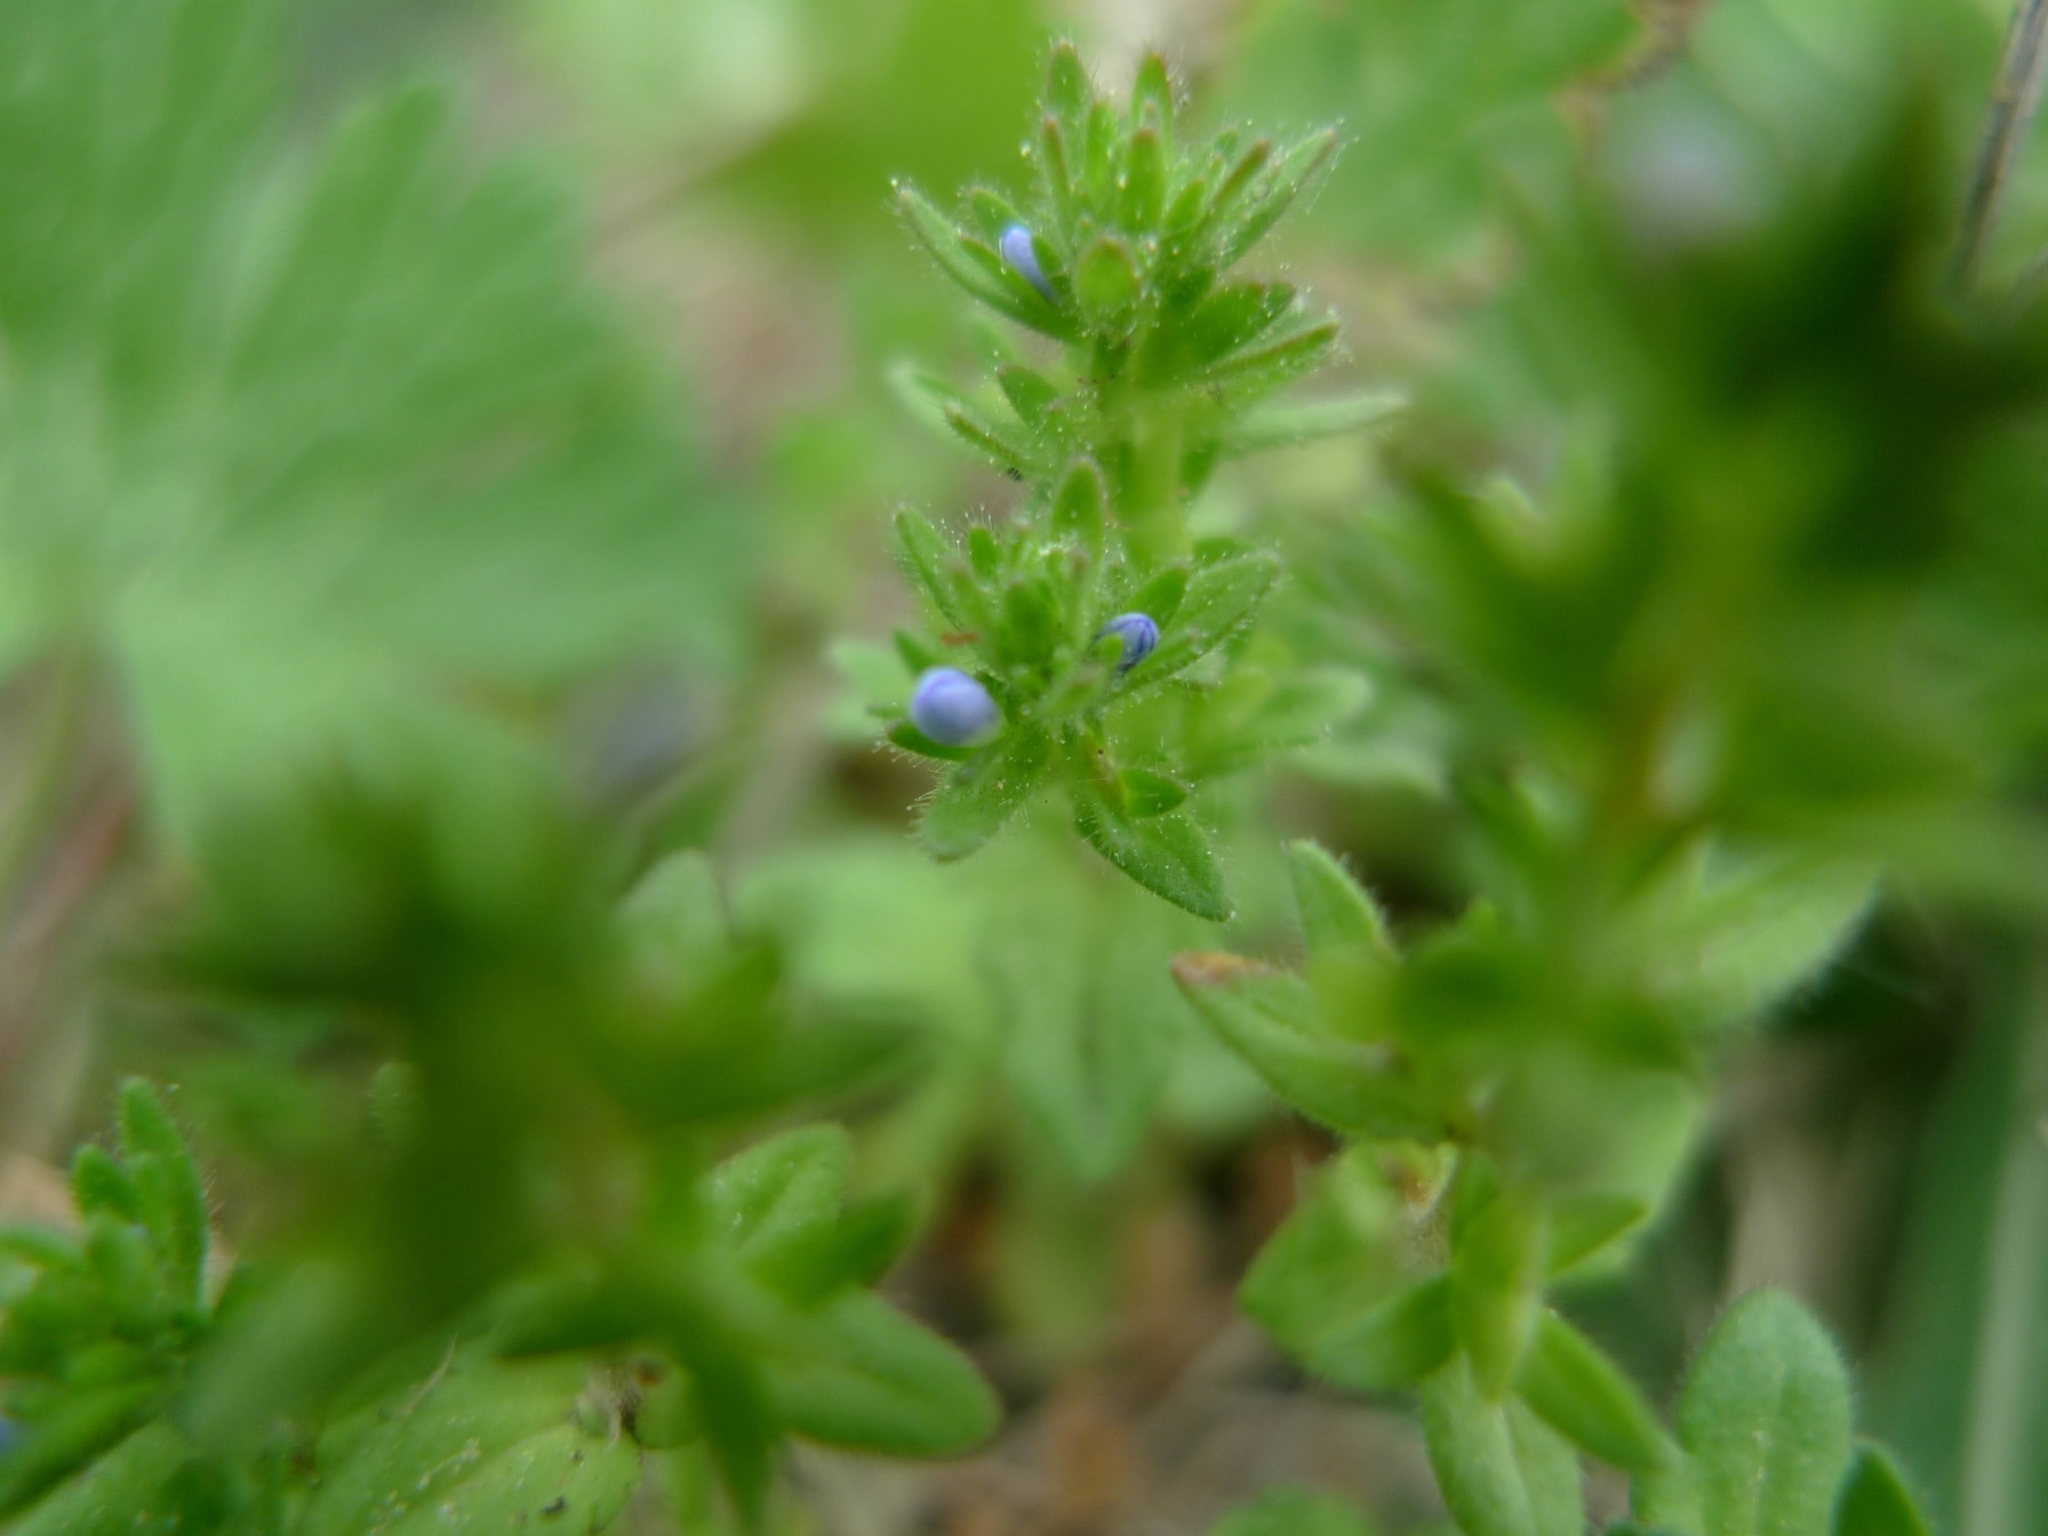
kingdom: Plantae
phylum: Tracheophyta
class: Magnoliopsida
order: Lamiales
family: Plantaginaceae
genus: Veronica
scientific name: Veronica arvensis
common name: Corn speedwell
